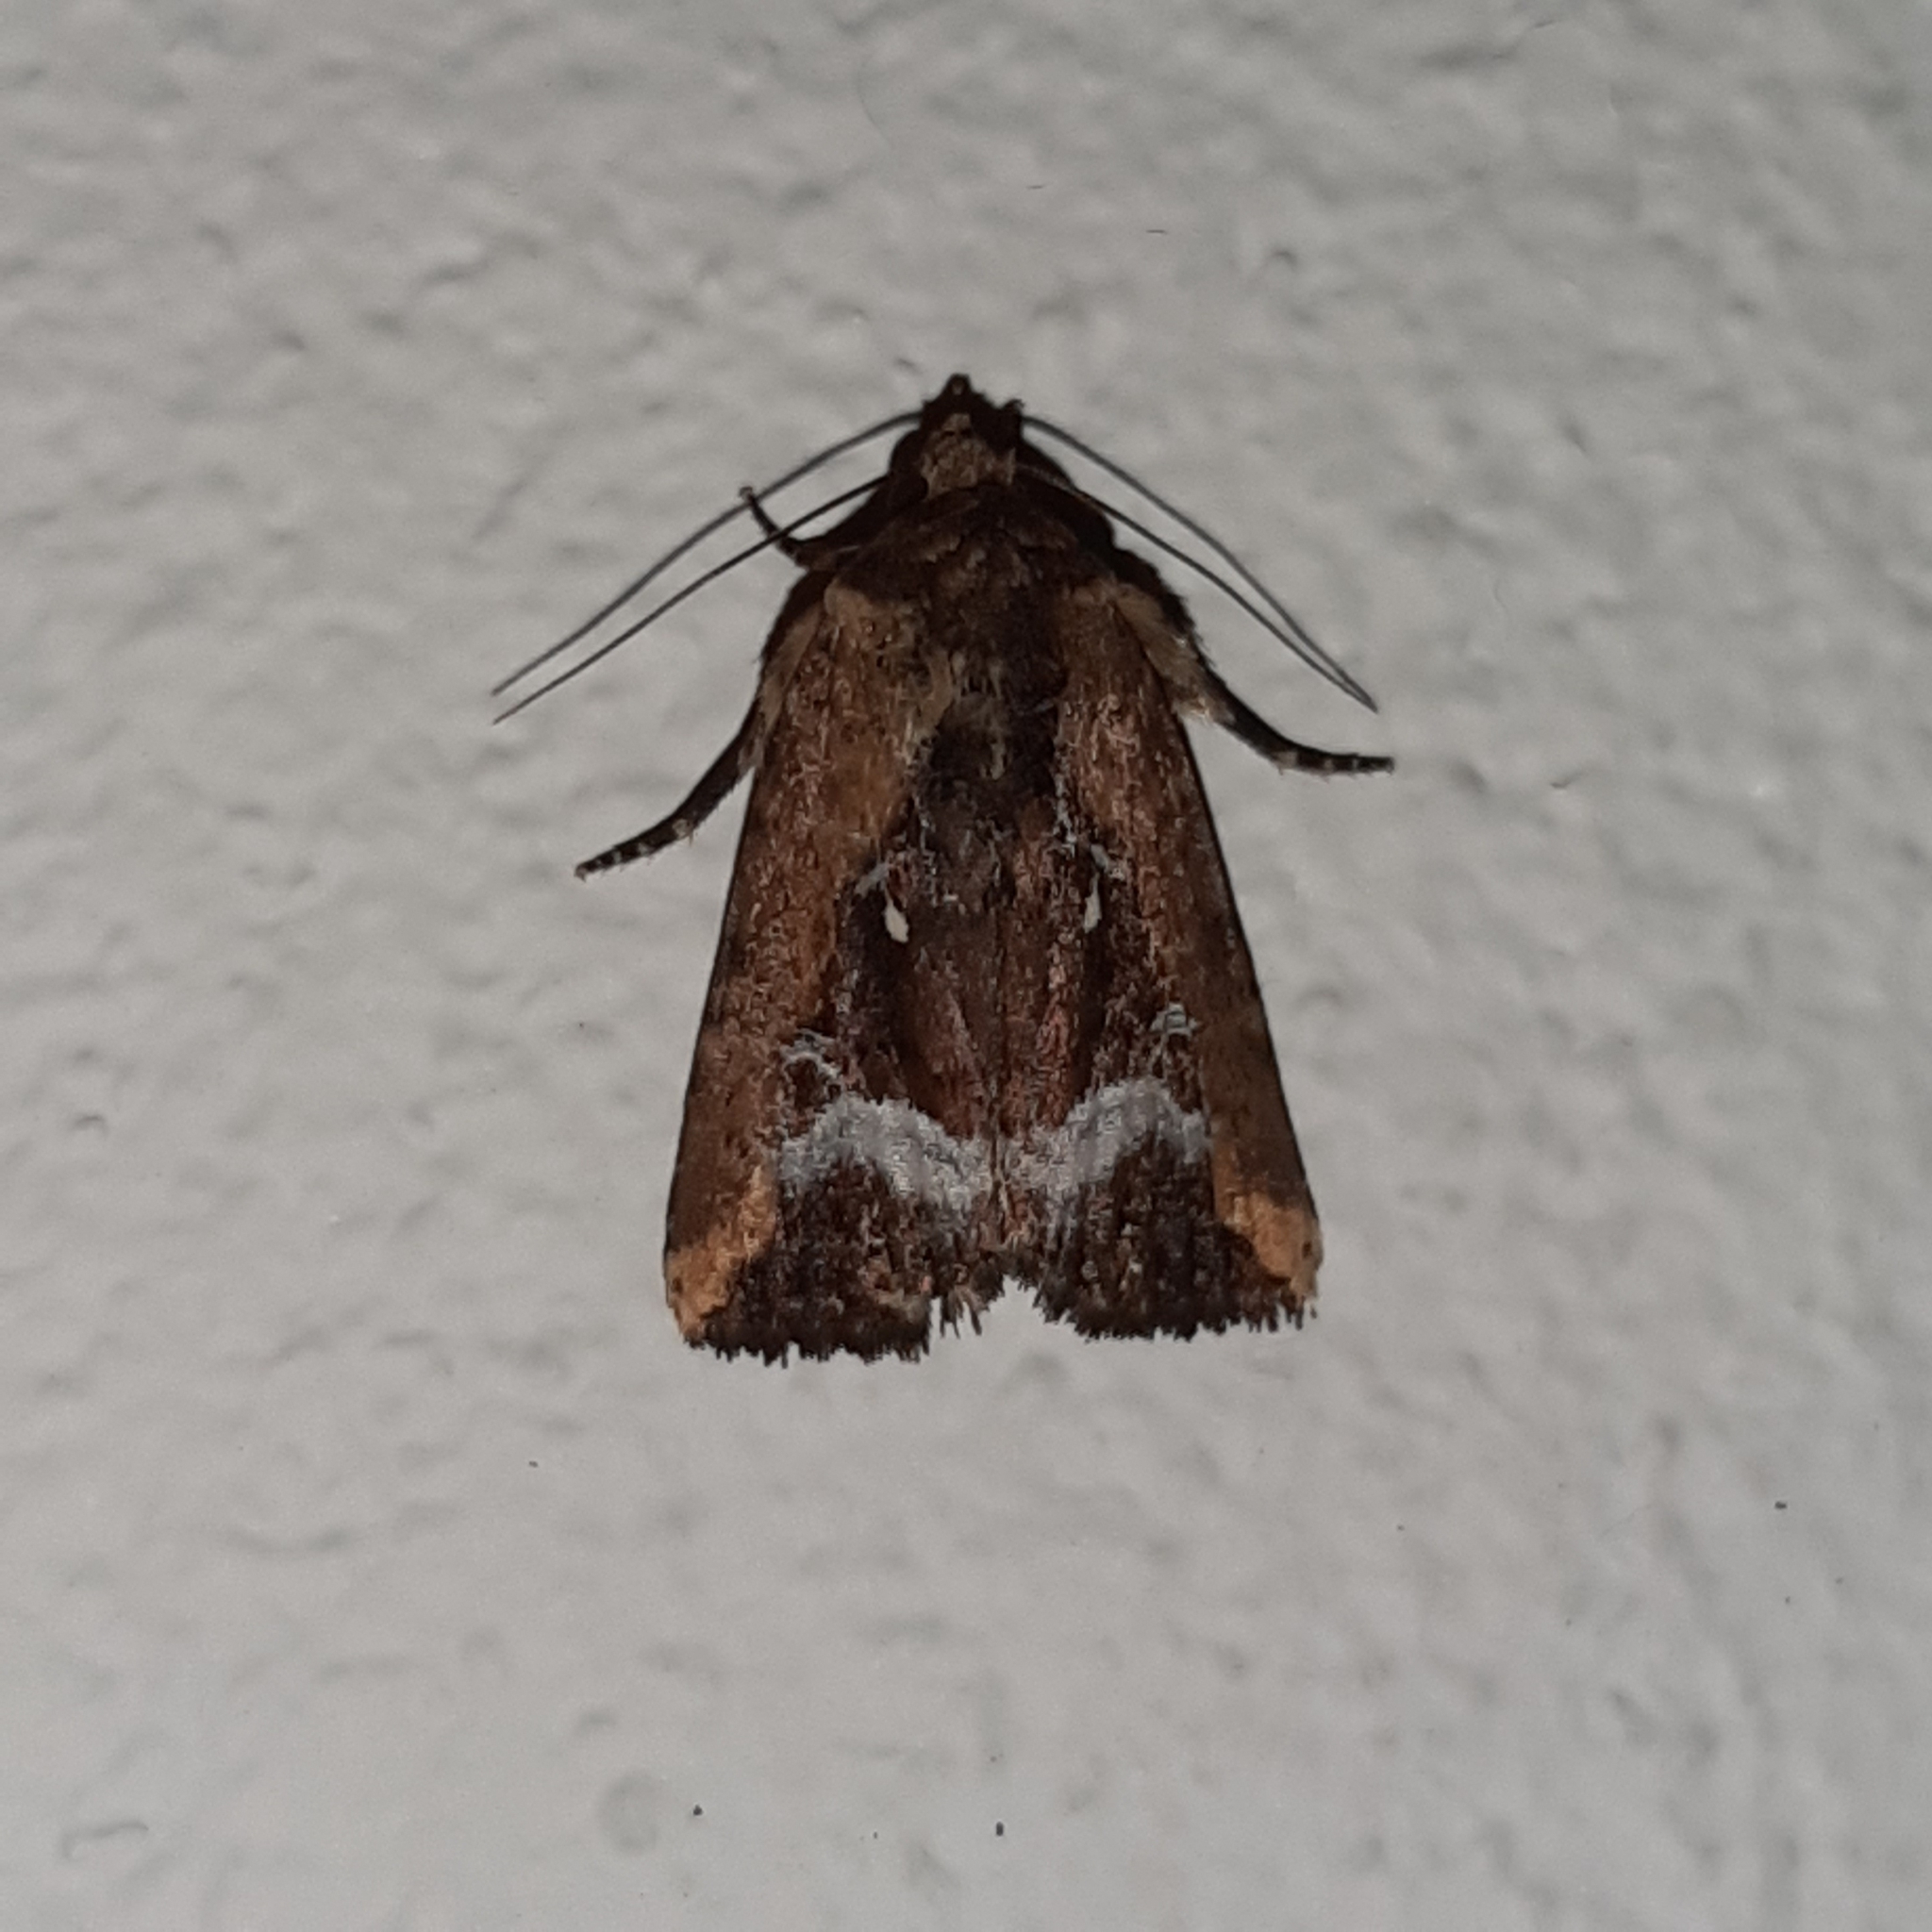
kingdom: Animalia
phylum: Arthropoda
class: Insecta
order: Lepidoptera
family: Noctuidae
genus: Elaphria
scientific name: Elaphria subobliqua
